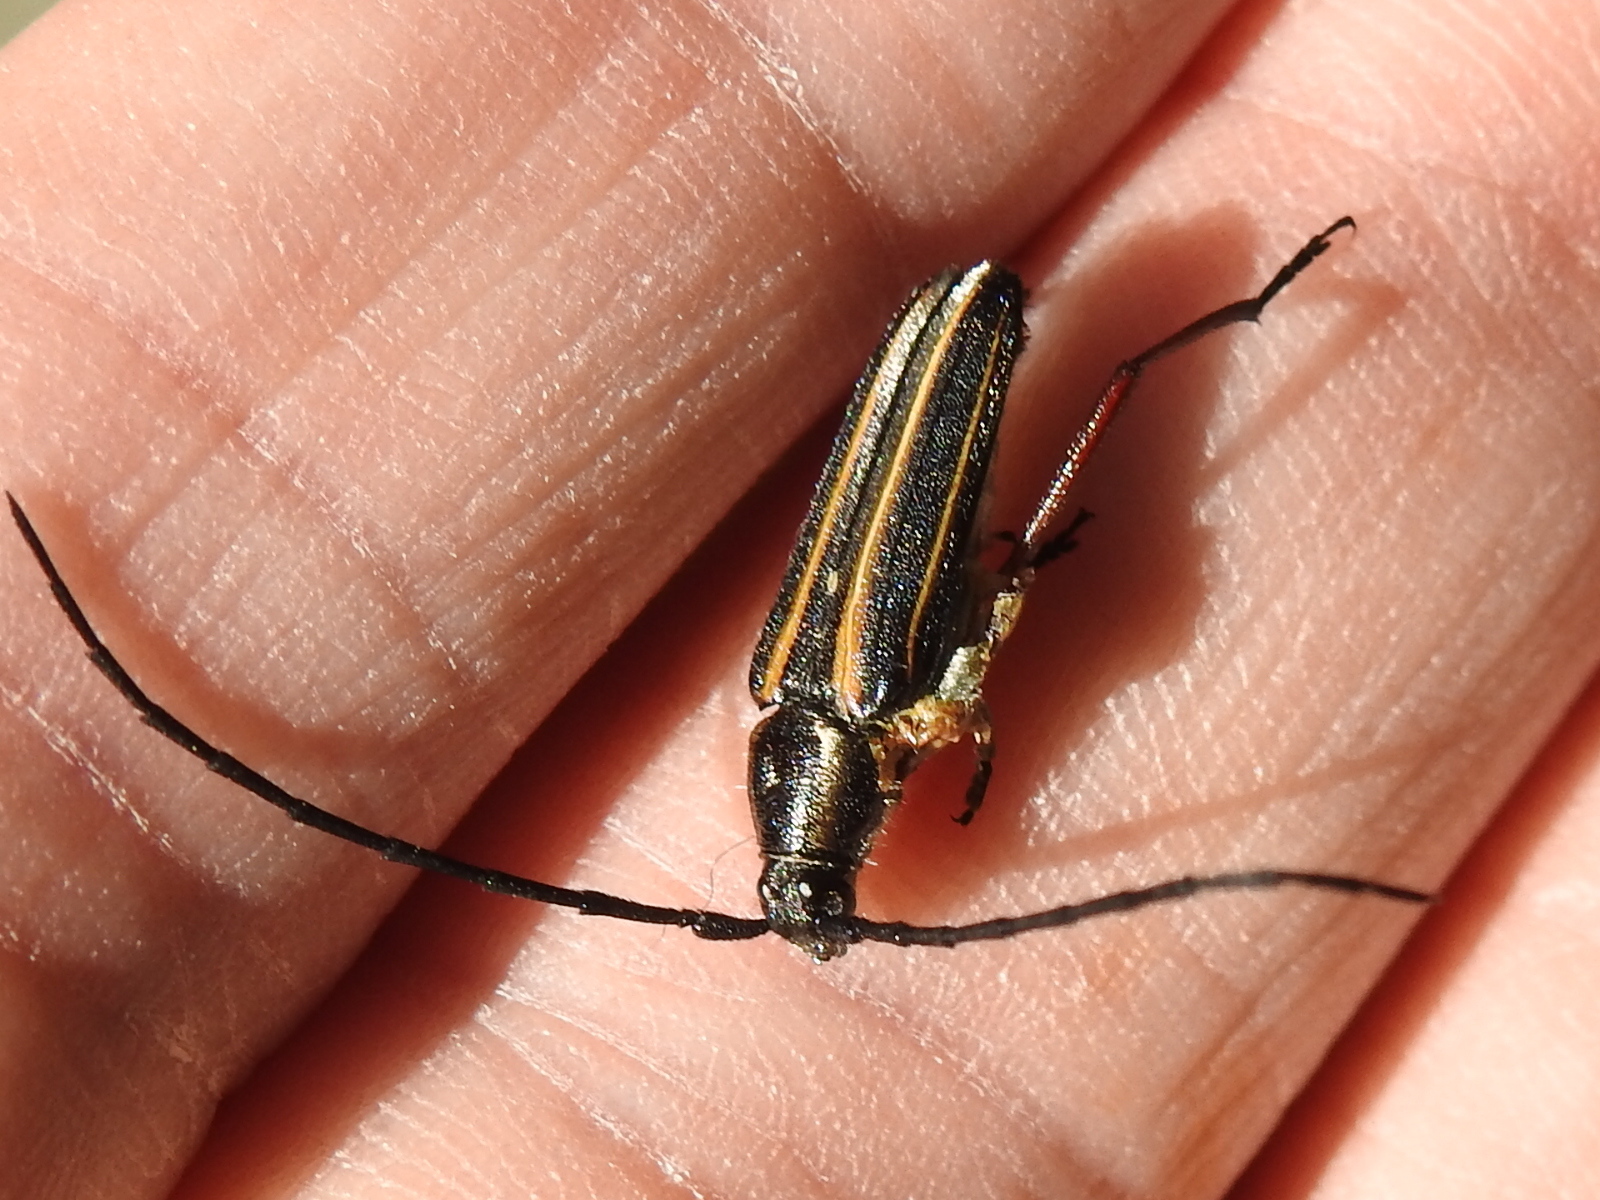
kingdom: Animalia
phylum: Arthropoda
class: Insecta
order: Coleoptera
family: Cerambycidae
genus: Sphaenothecus
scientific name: Sphaenothecus bilineatus
